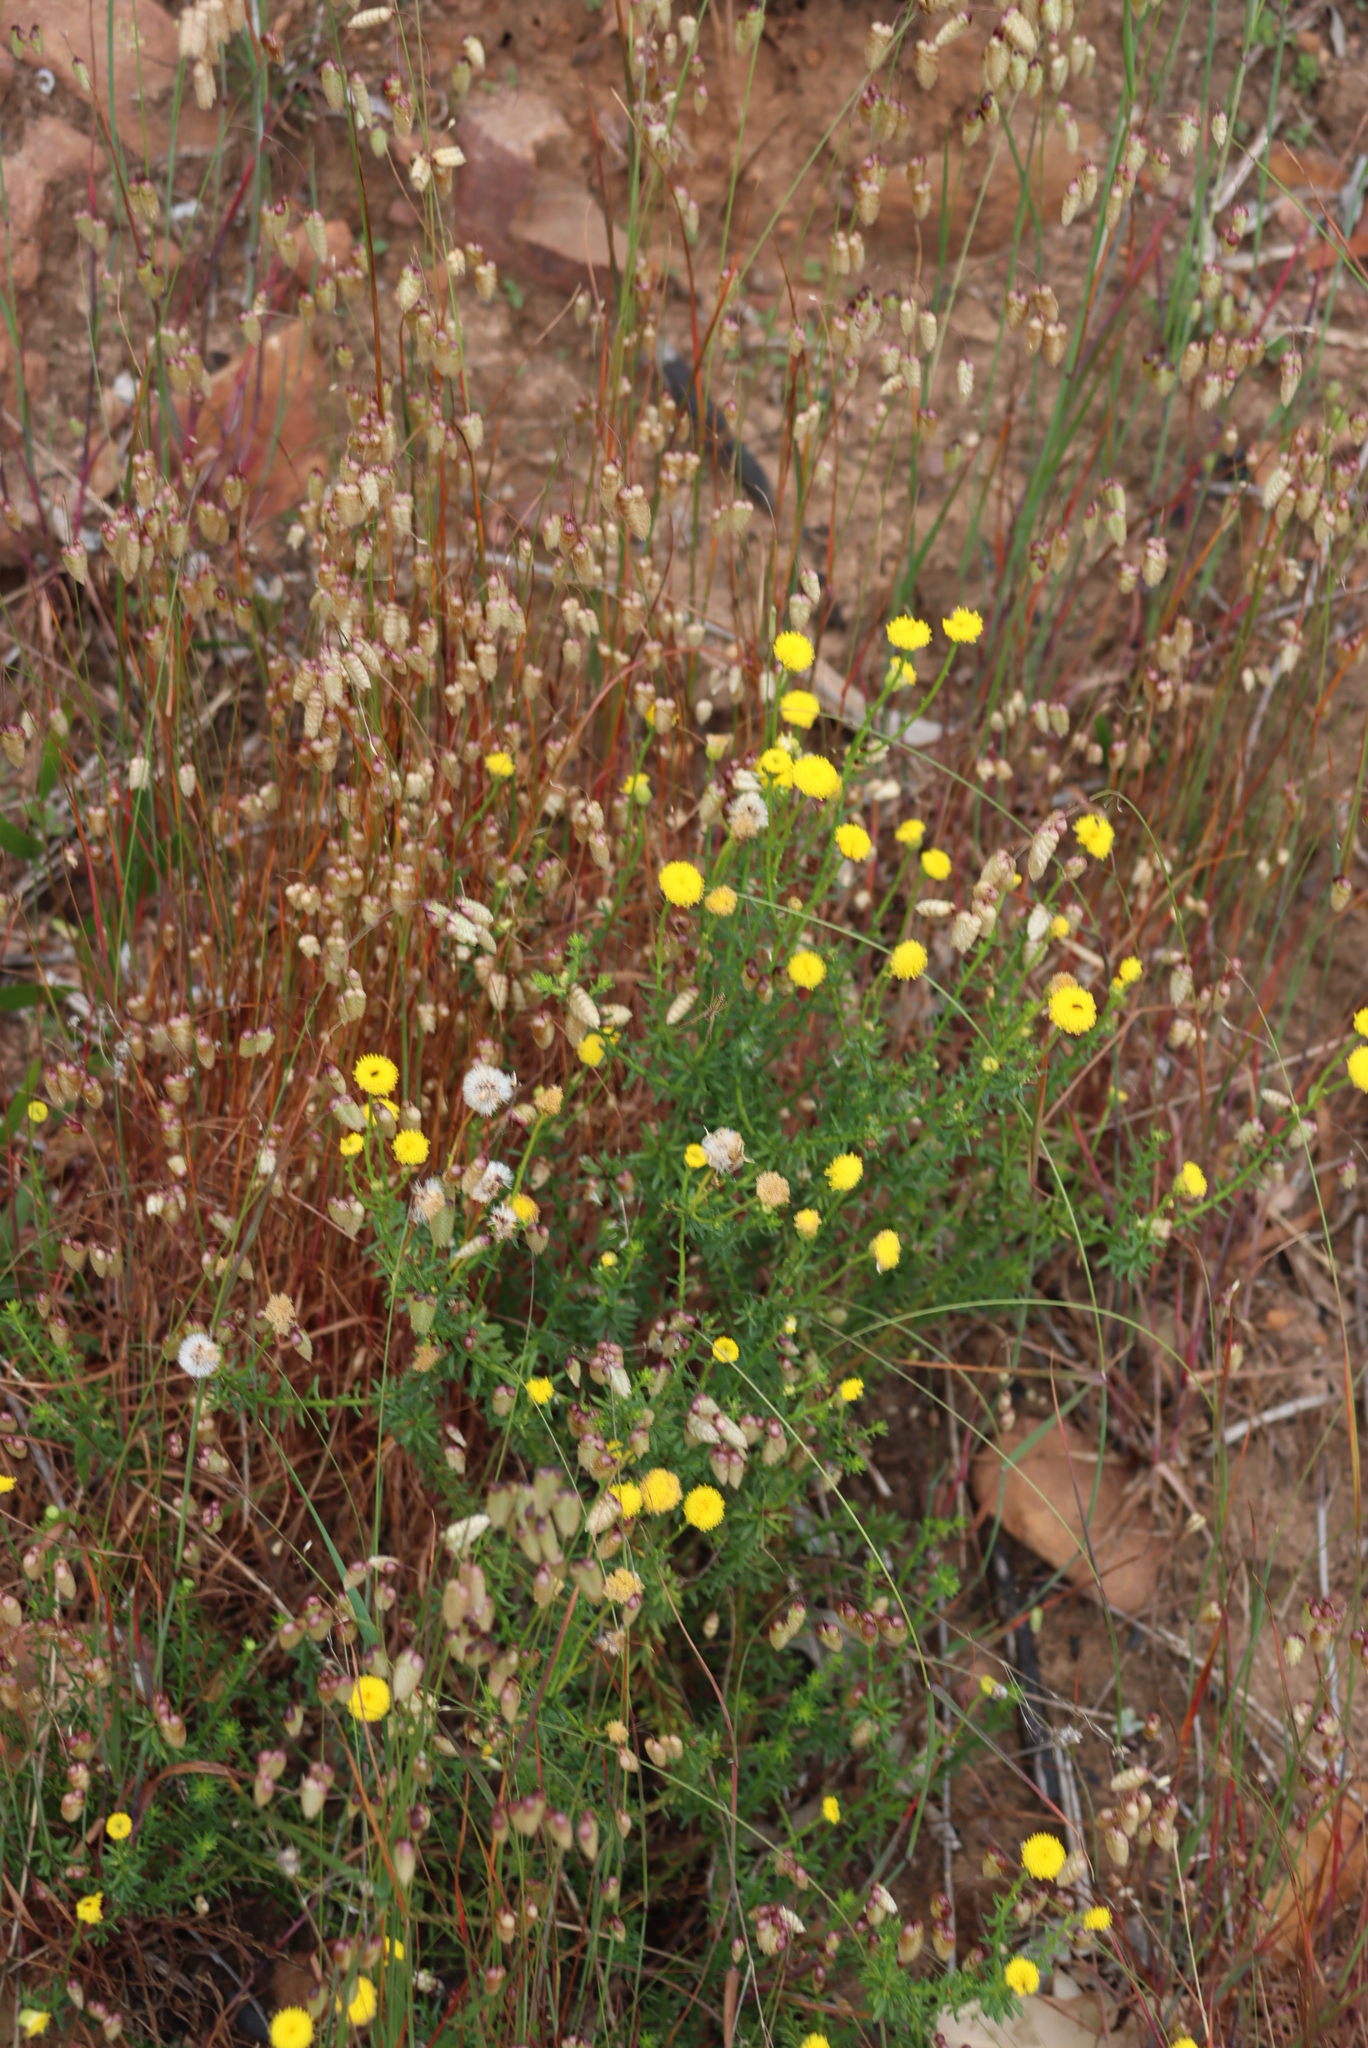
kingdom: Plantae
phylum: Tracheophyta
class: Magnoliopsida
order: Asterales
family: Asteraceae
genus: Chrysocoma
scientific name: Chrysocoma cernua
